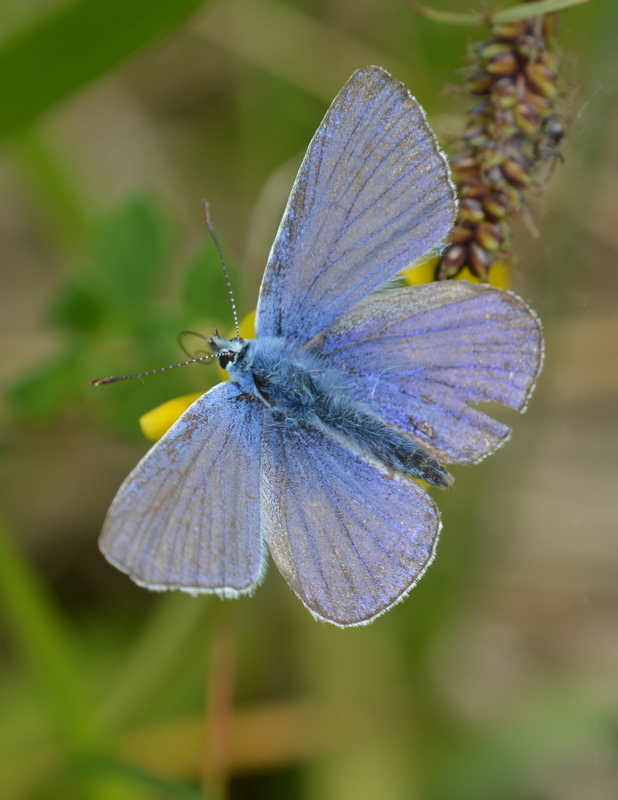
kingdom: Animalia
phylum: Arthropoda
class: Insecta
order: Lepidoptera
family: Lycaenidae
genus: Polyommatus
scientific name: Polyommatus icarus
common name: Common blue
